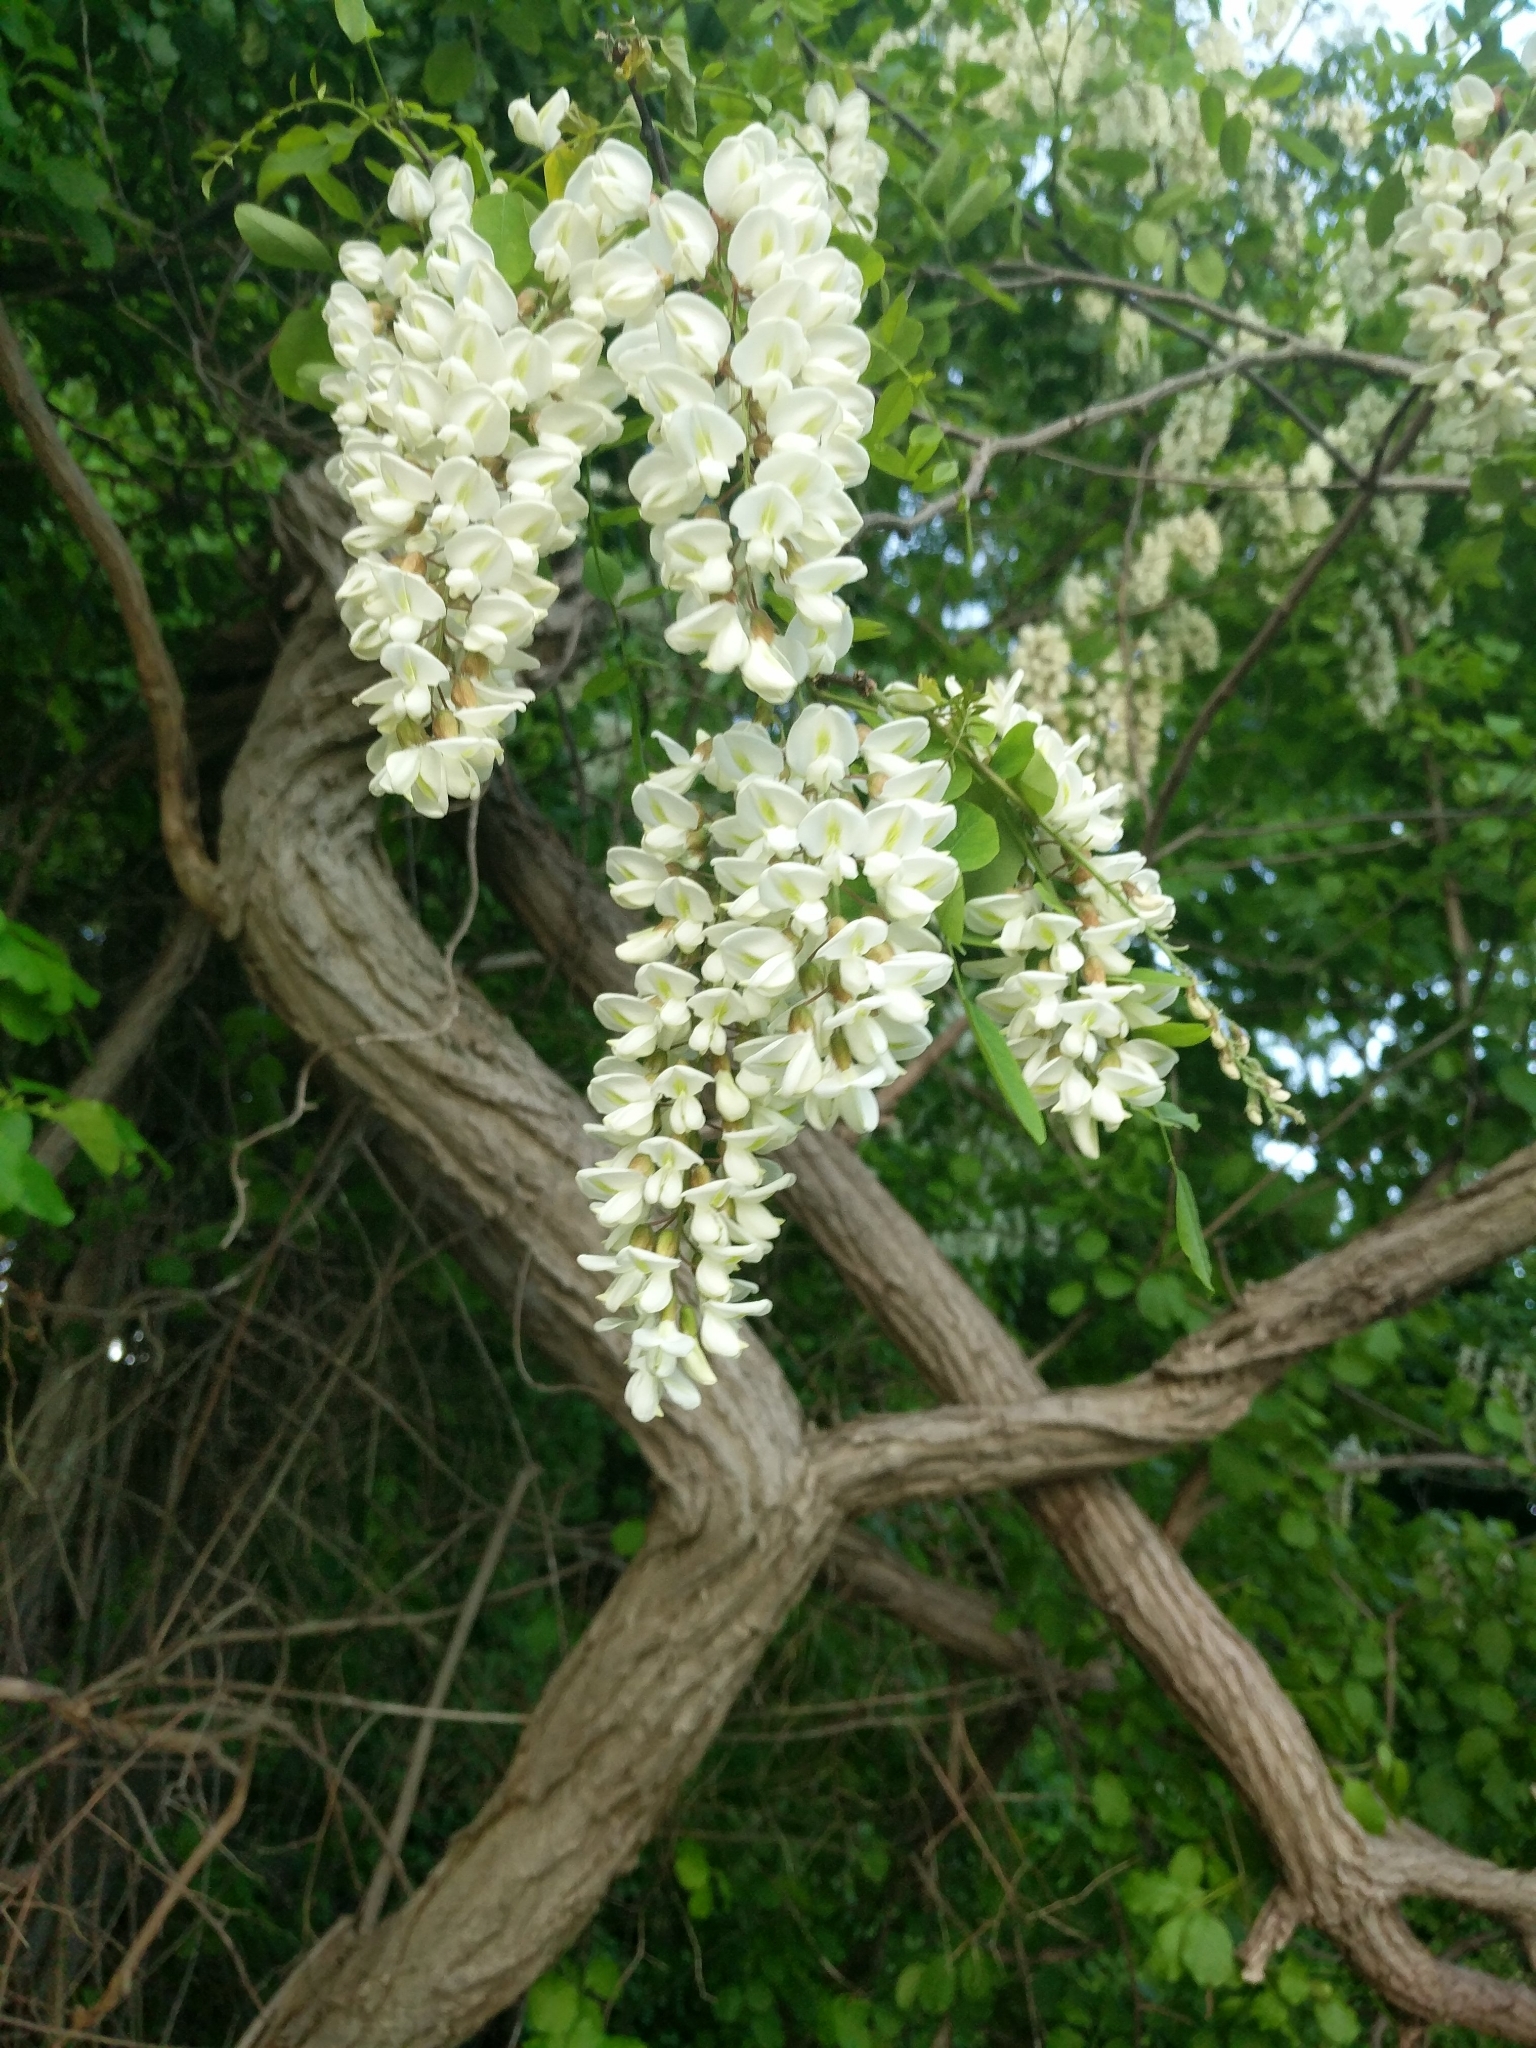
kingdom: Plantae
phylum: Tracheophyta
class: Magnoliopsida
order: Fabales
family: Fabaceae
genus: Robinia
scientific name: Robinia pseudoacacia
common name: Black locust
